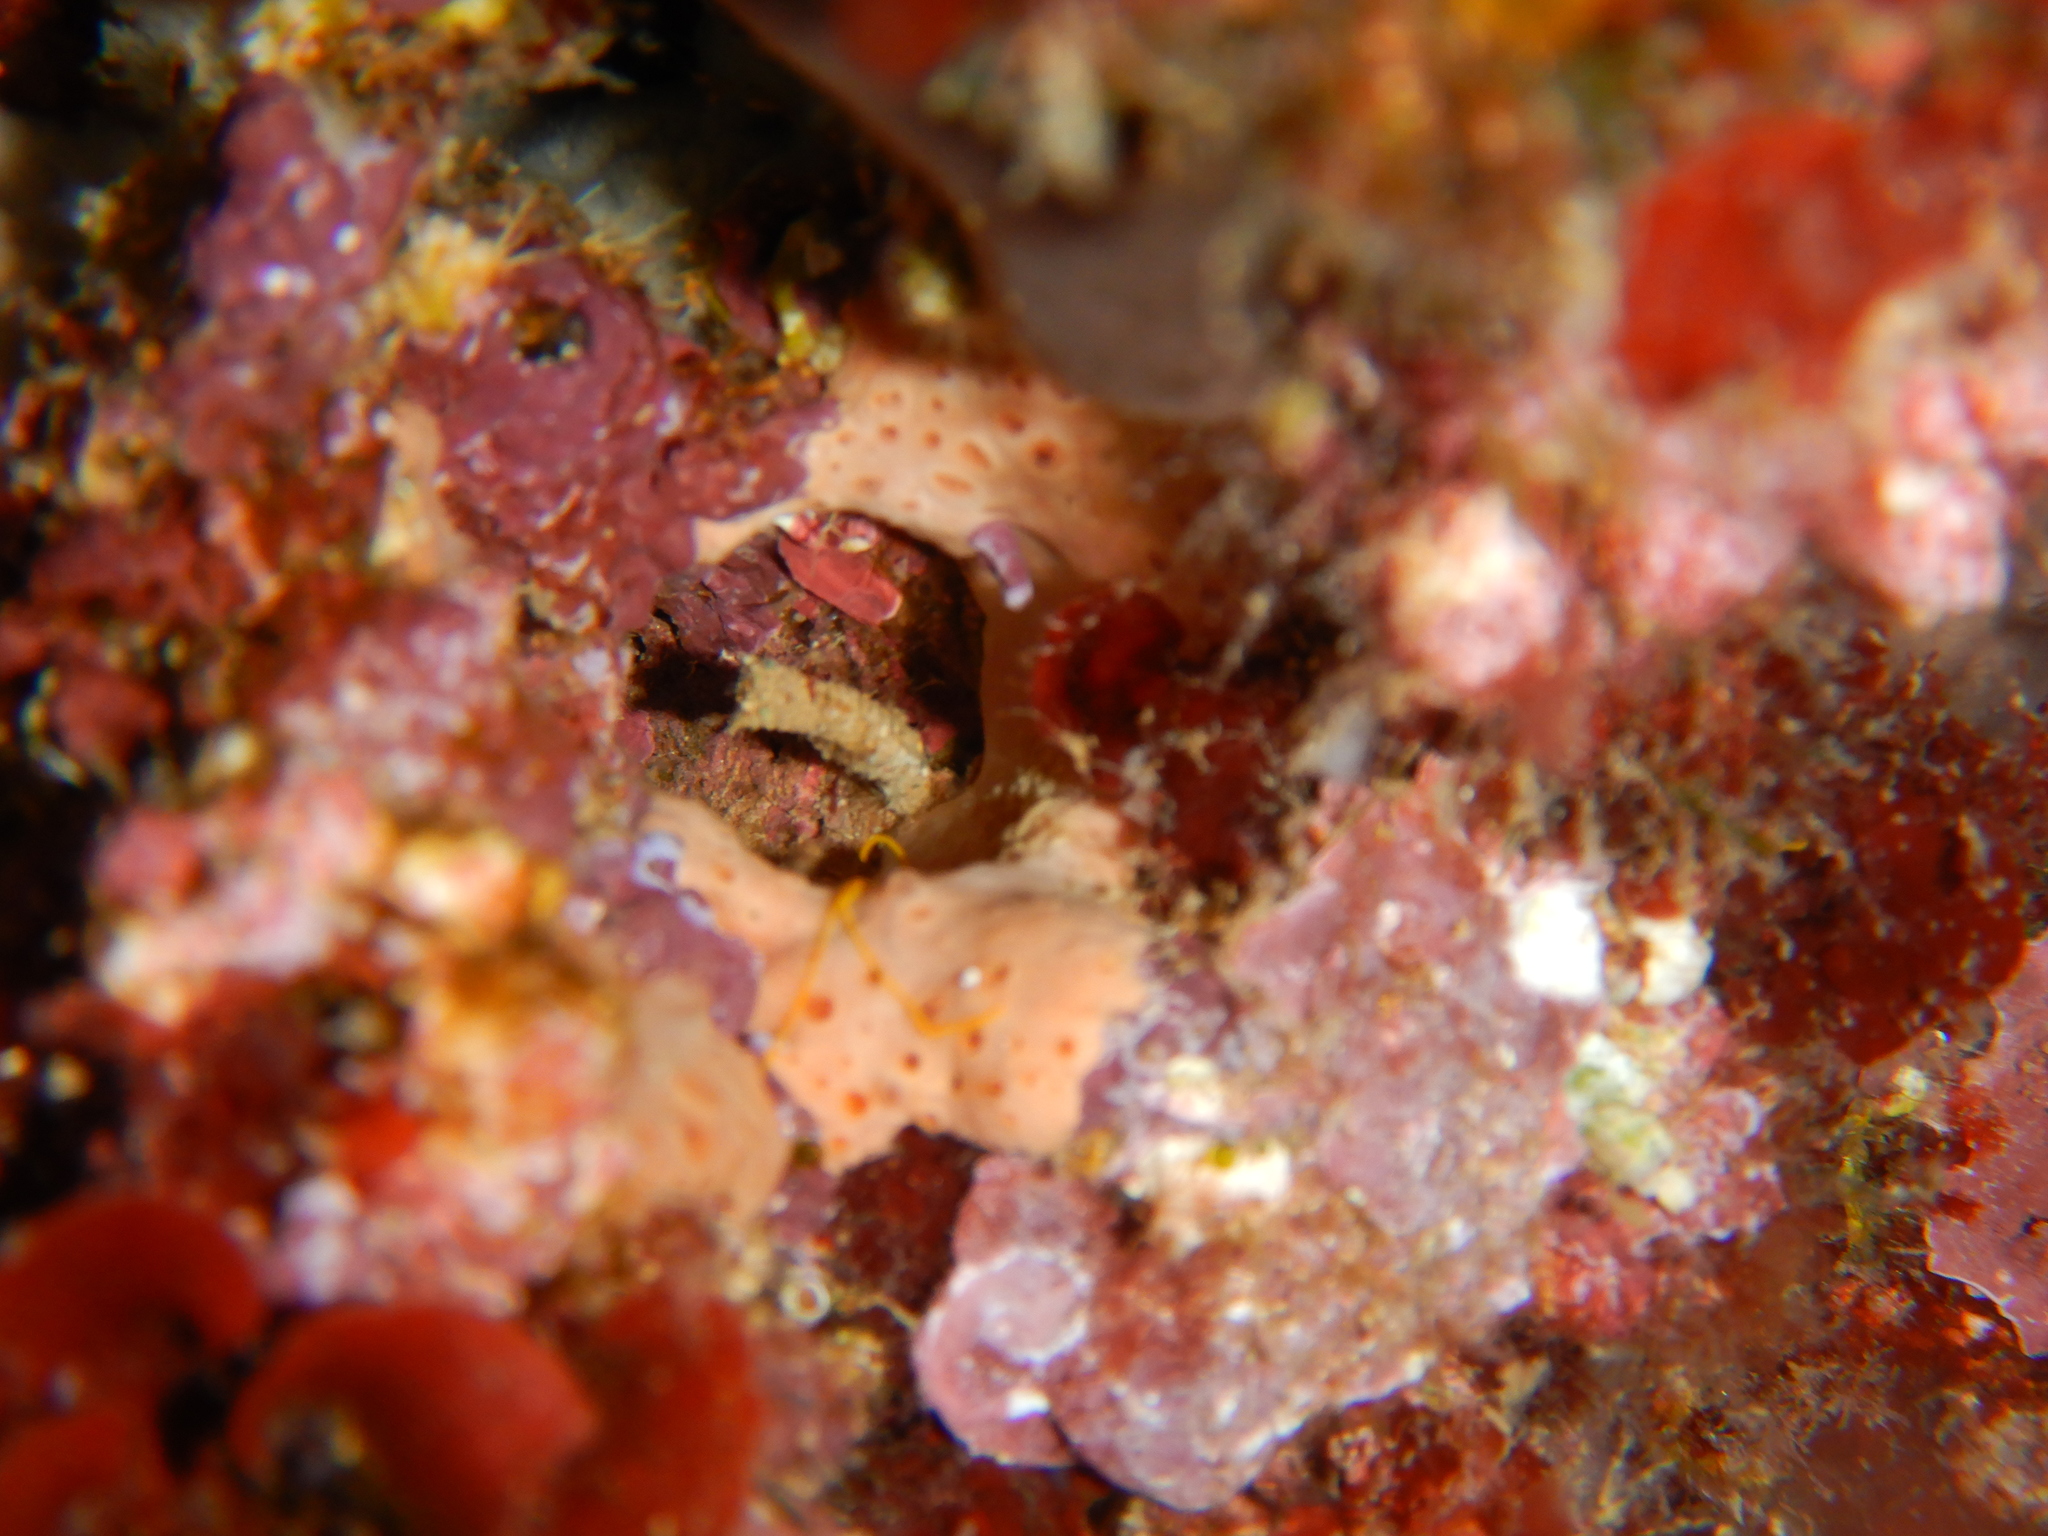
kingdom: Animalia
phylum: Porifera
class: Demospongiae
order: Poecilosclerida
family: Hymedesmiidae
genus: Hemimycale
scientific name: Hemimycale columella
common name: Crater sponge
